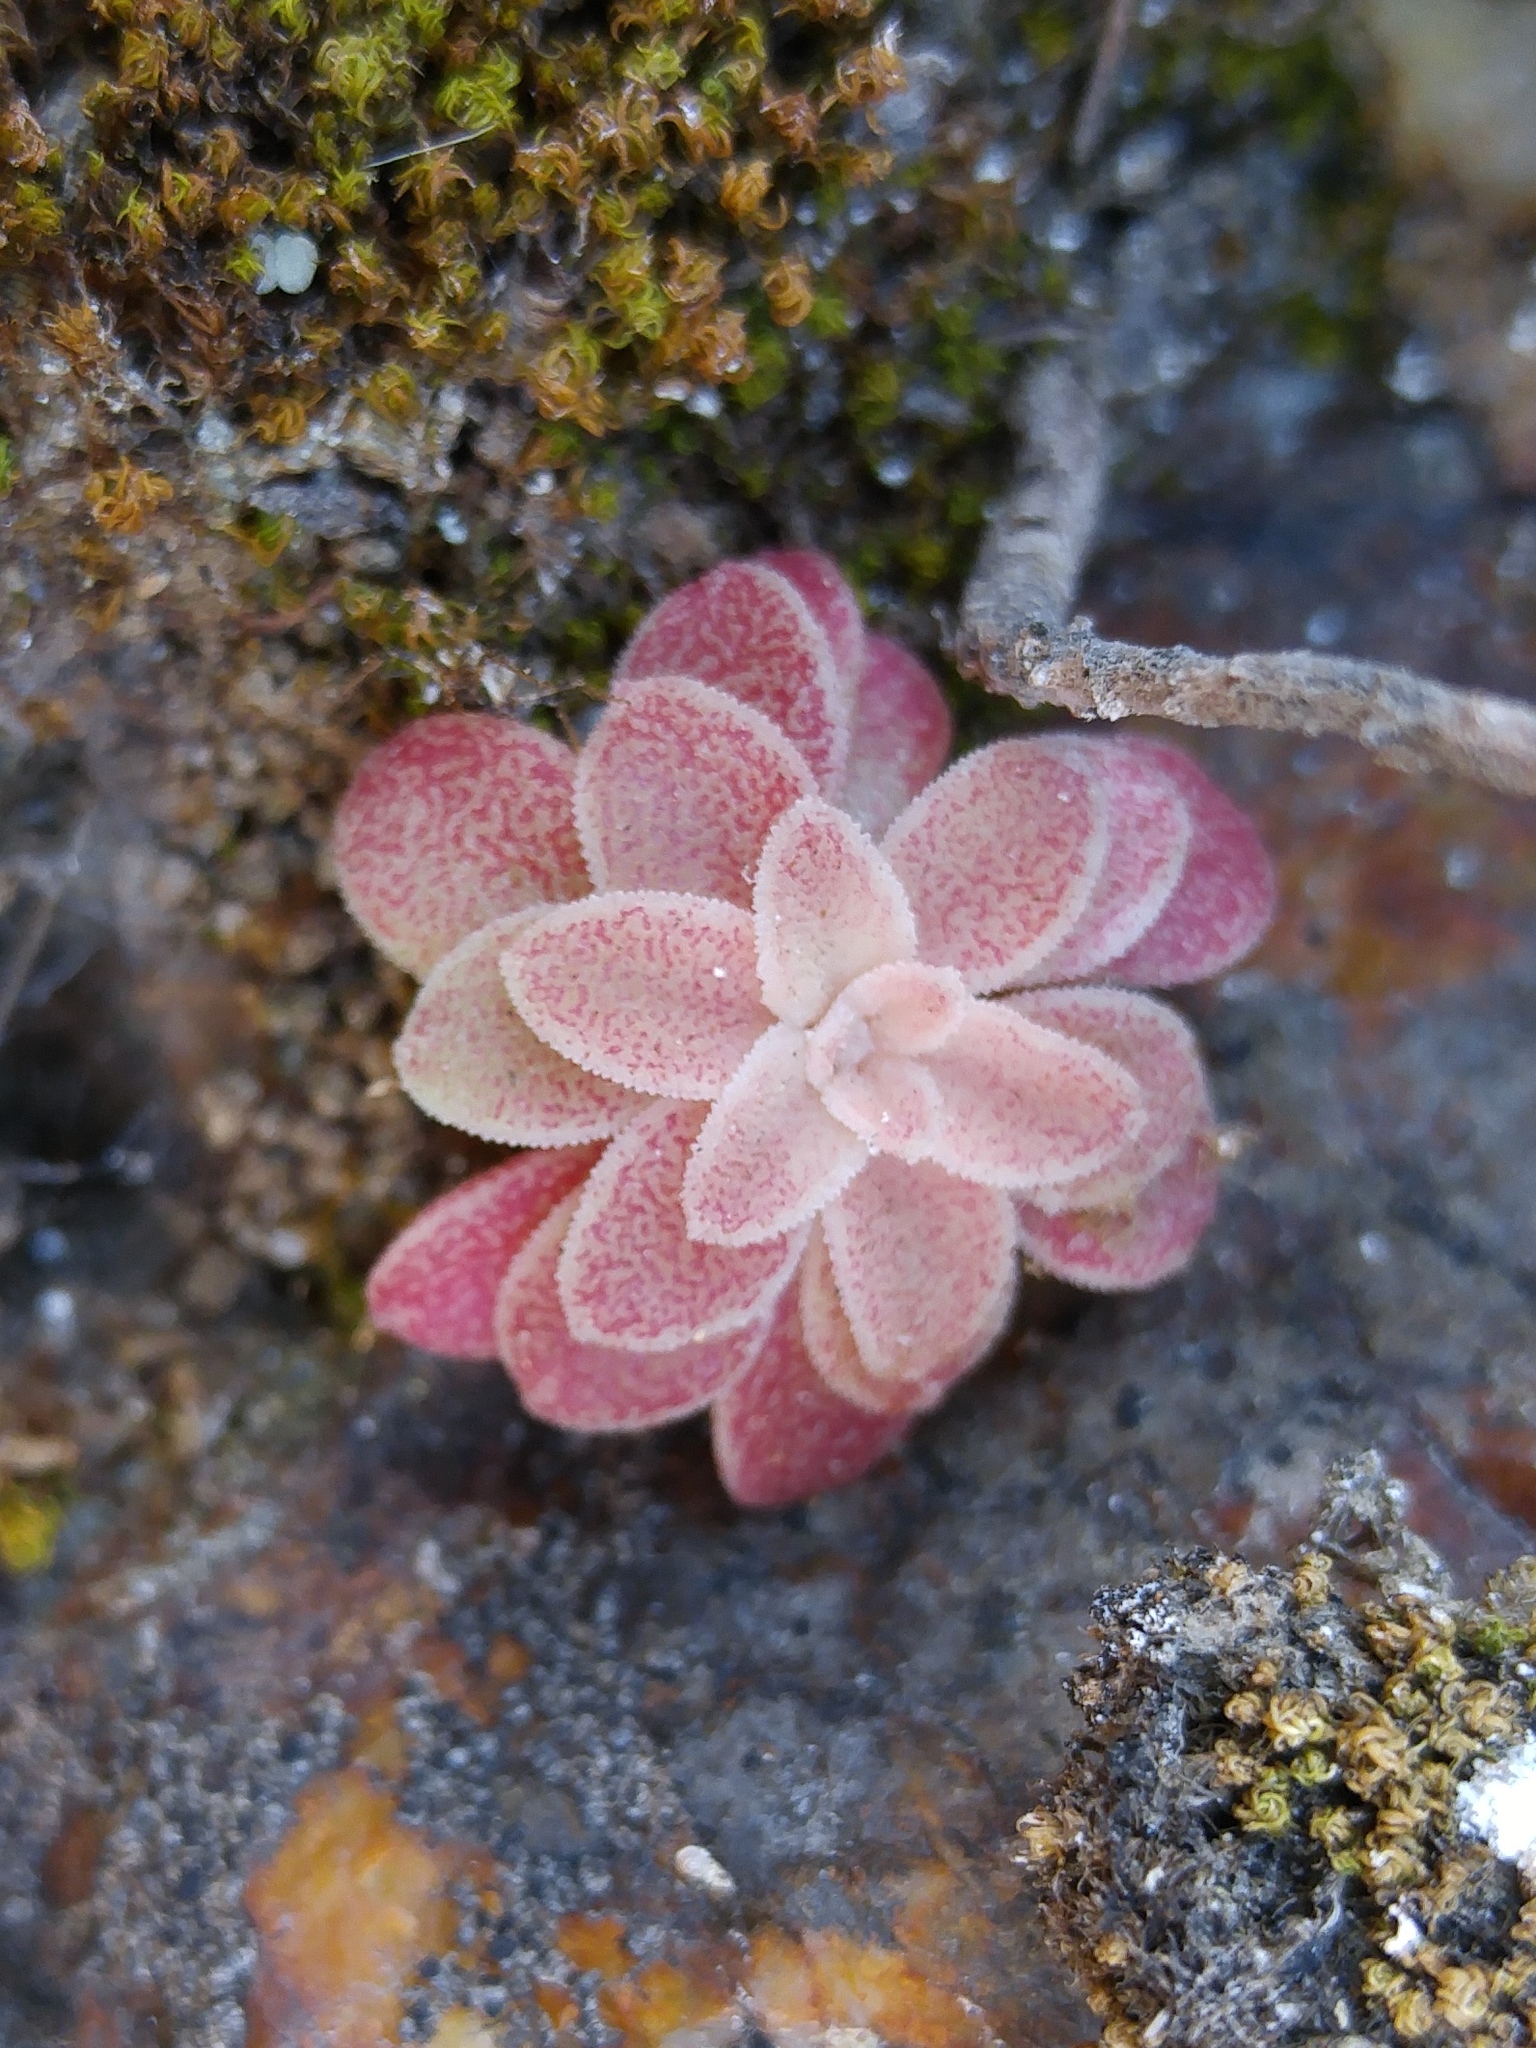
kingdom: Plantae
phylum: Tracheophyta
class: Magnoliopsida
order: Saxifragales
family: Crassulaceae
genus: Sedum
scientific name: Sedum cepaea
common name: Pink stonecrop
